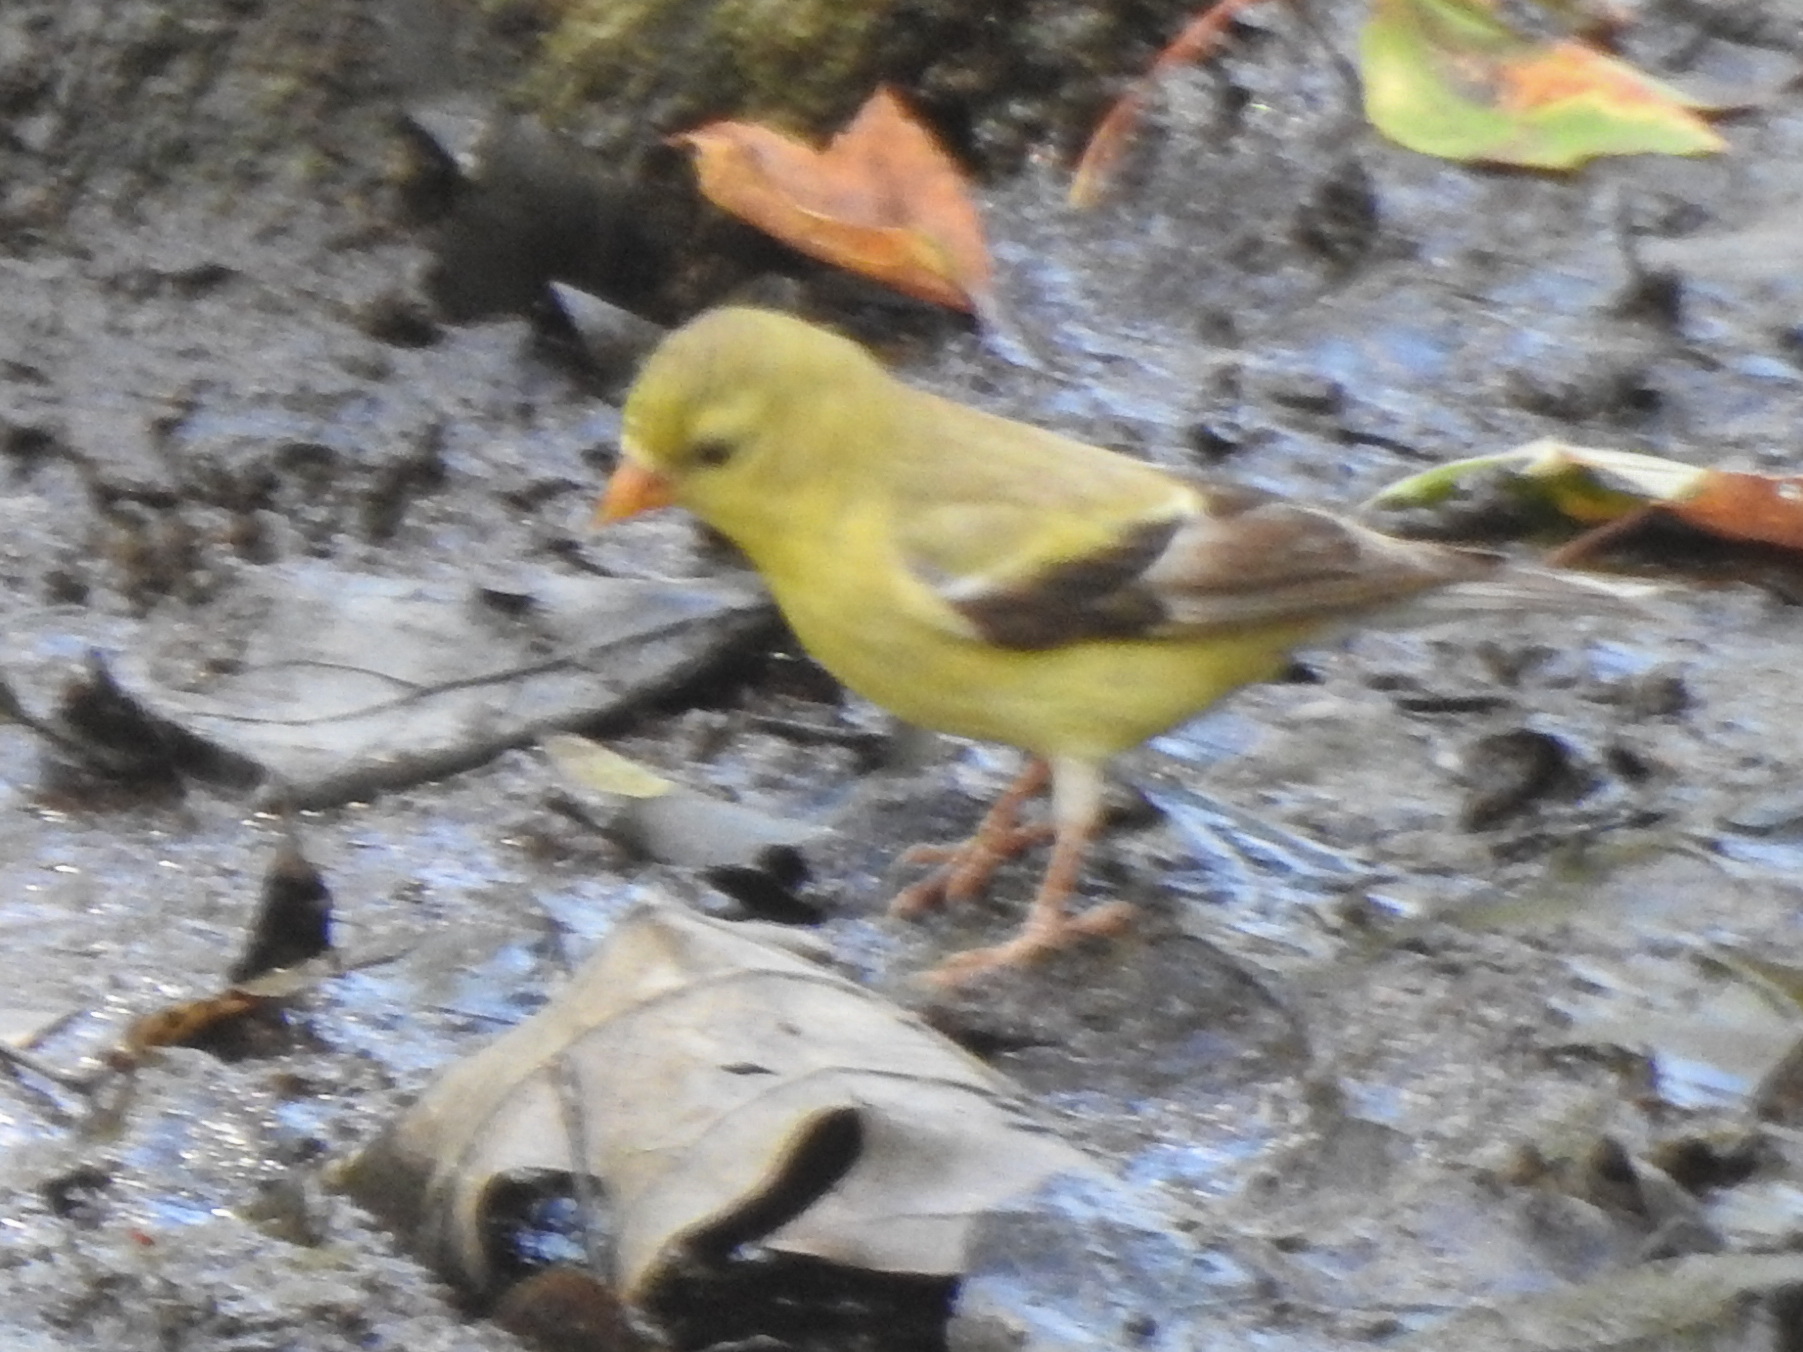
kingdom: Animalia
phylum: Chordata
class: Aves
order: Passeriformes
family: Fringillidae
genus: Spinus
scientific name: Spinus tristis
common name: American goldfinch
